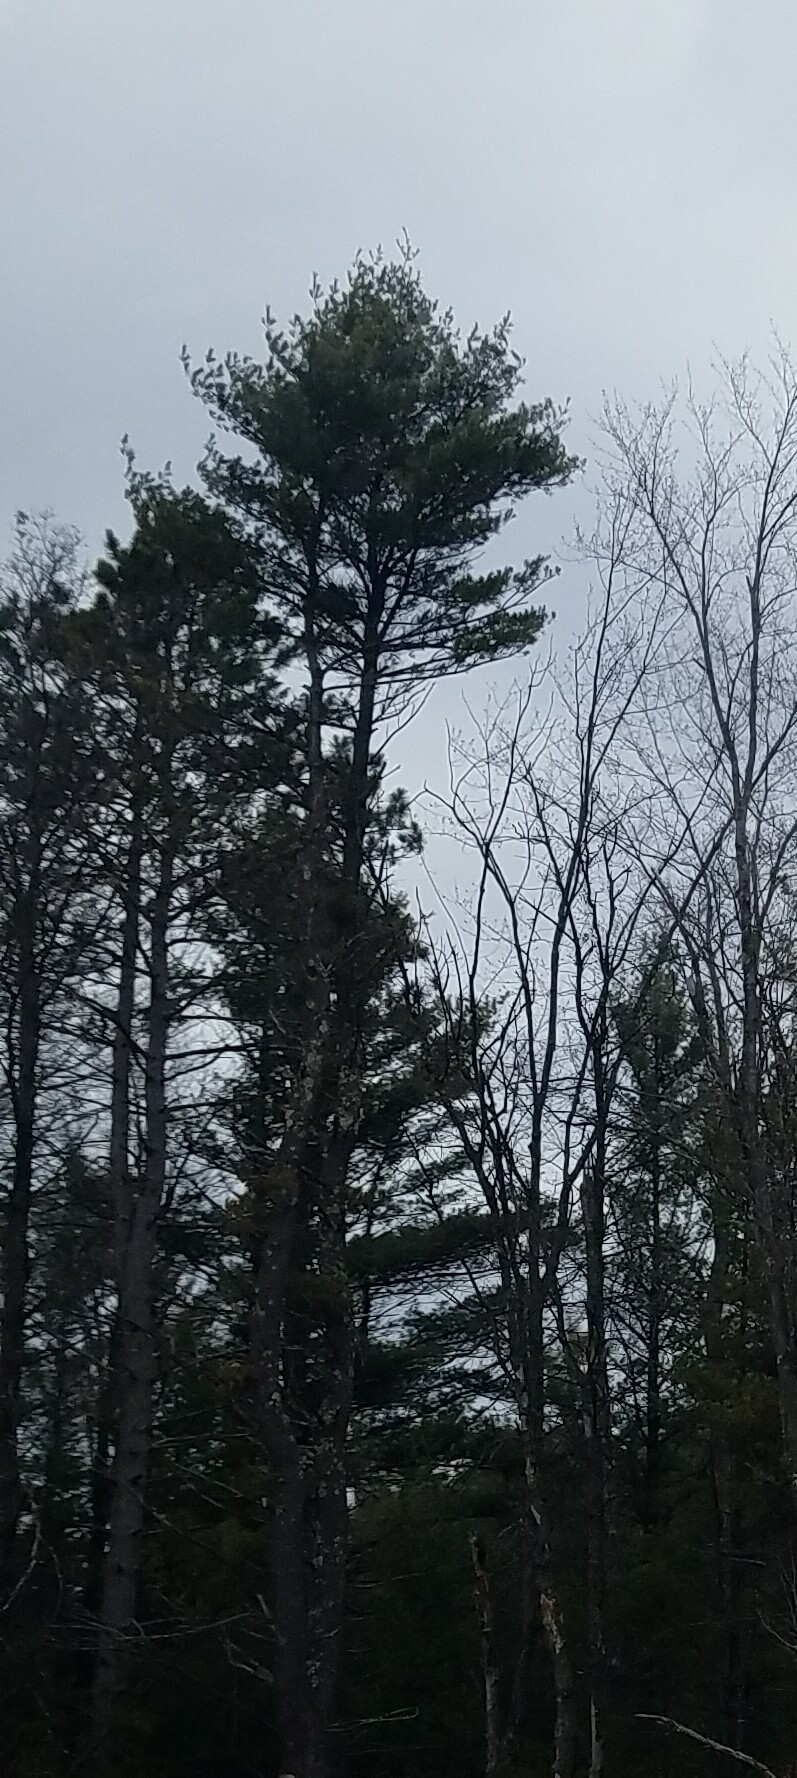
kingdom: Plantae
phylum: Tracheophyta
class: Pinopsida
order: Pinales
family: Pinaceae
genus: Pinus
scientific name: Pinus strobus
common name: Weymouth pine
